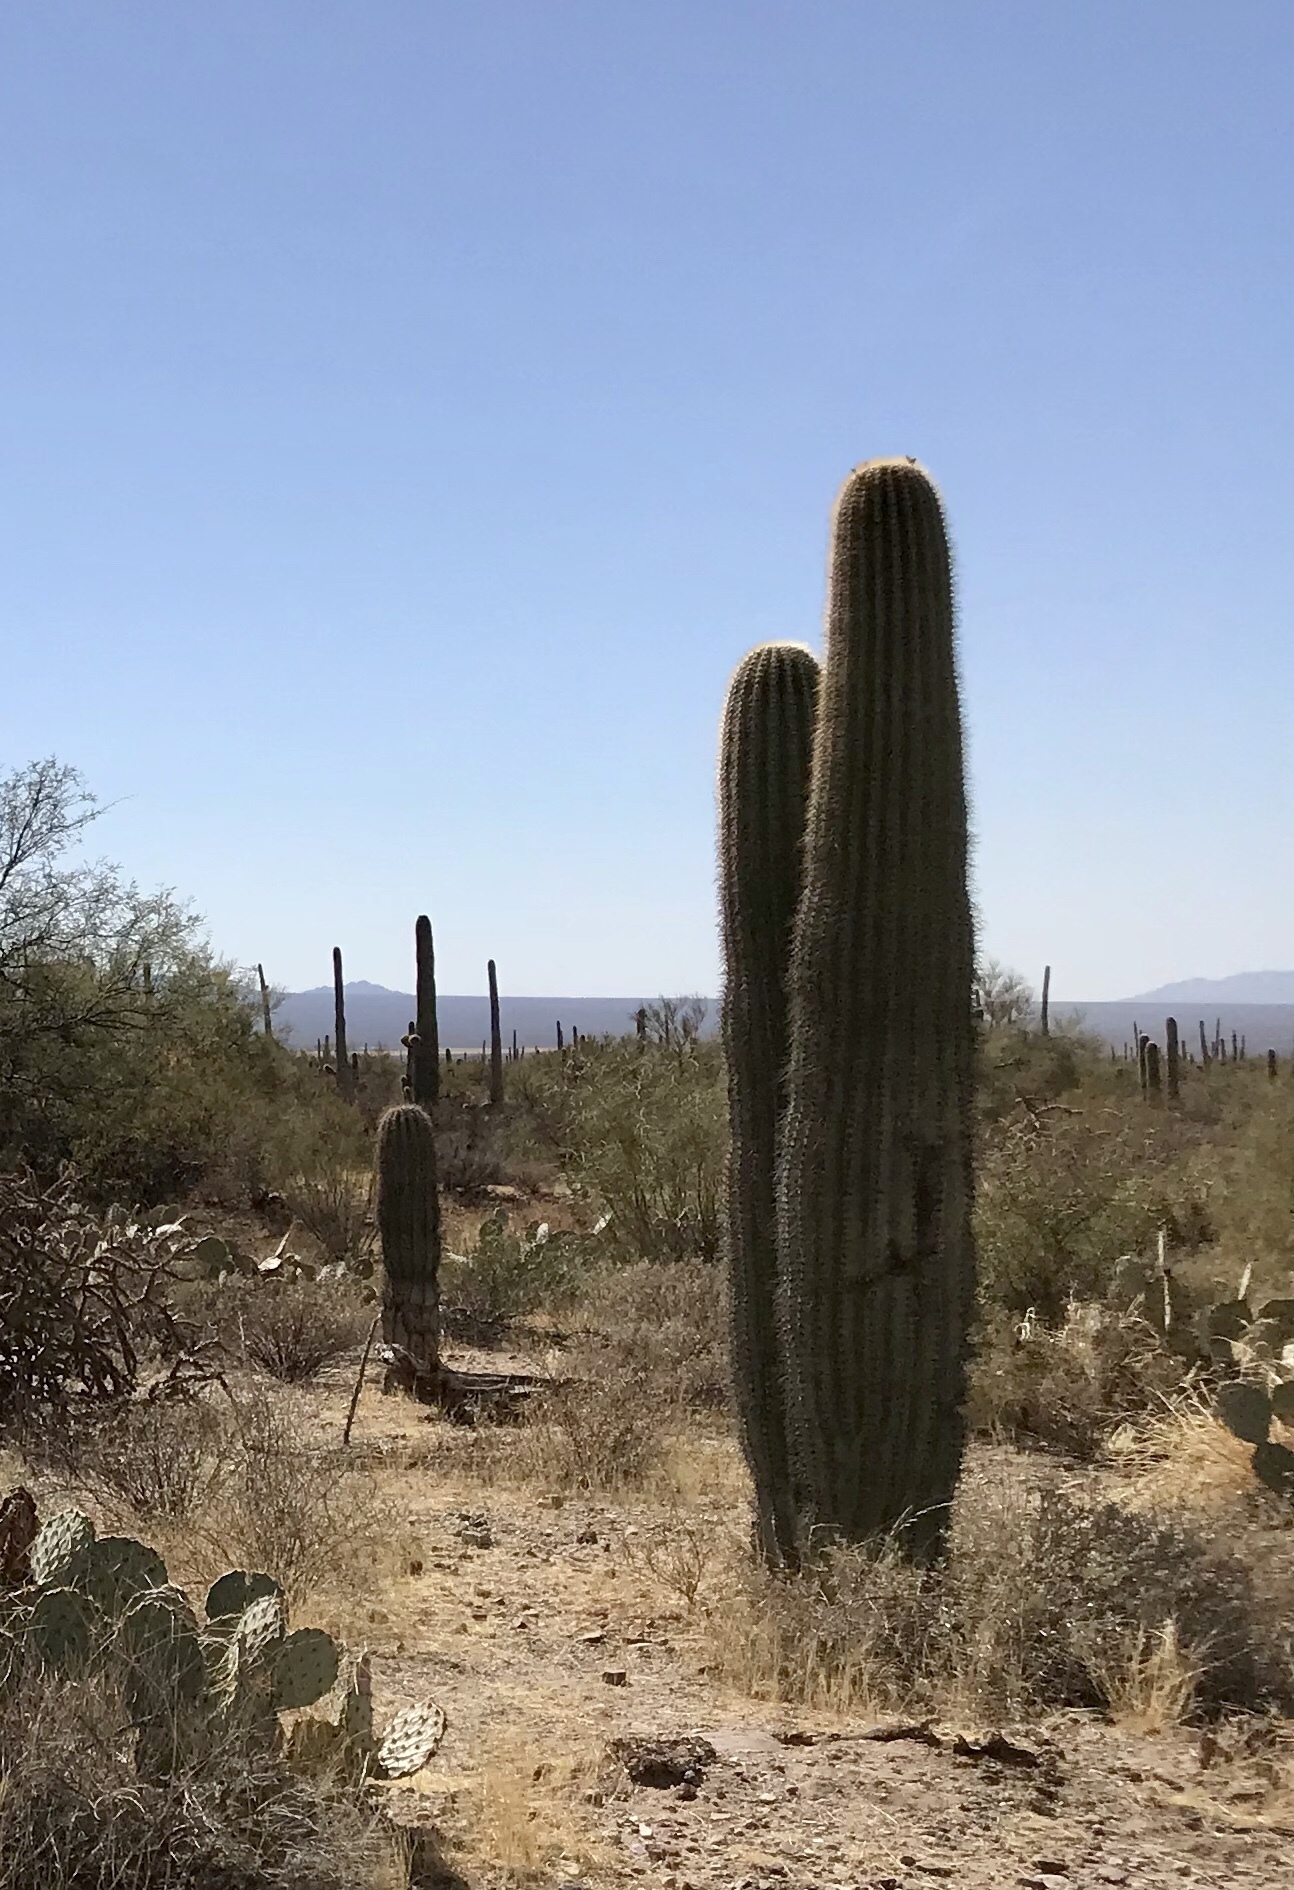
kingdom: Plantae
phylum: Tracheophyta
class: Magnoliopsida
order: Caryophyllales
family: Cactaceae
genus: Carnegiea
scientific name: Carnegiea gigantea
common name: Saguaro
